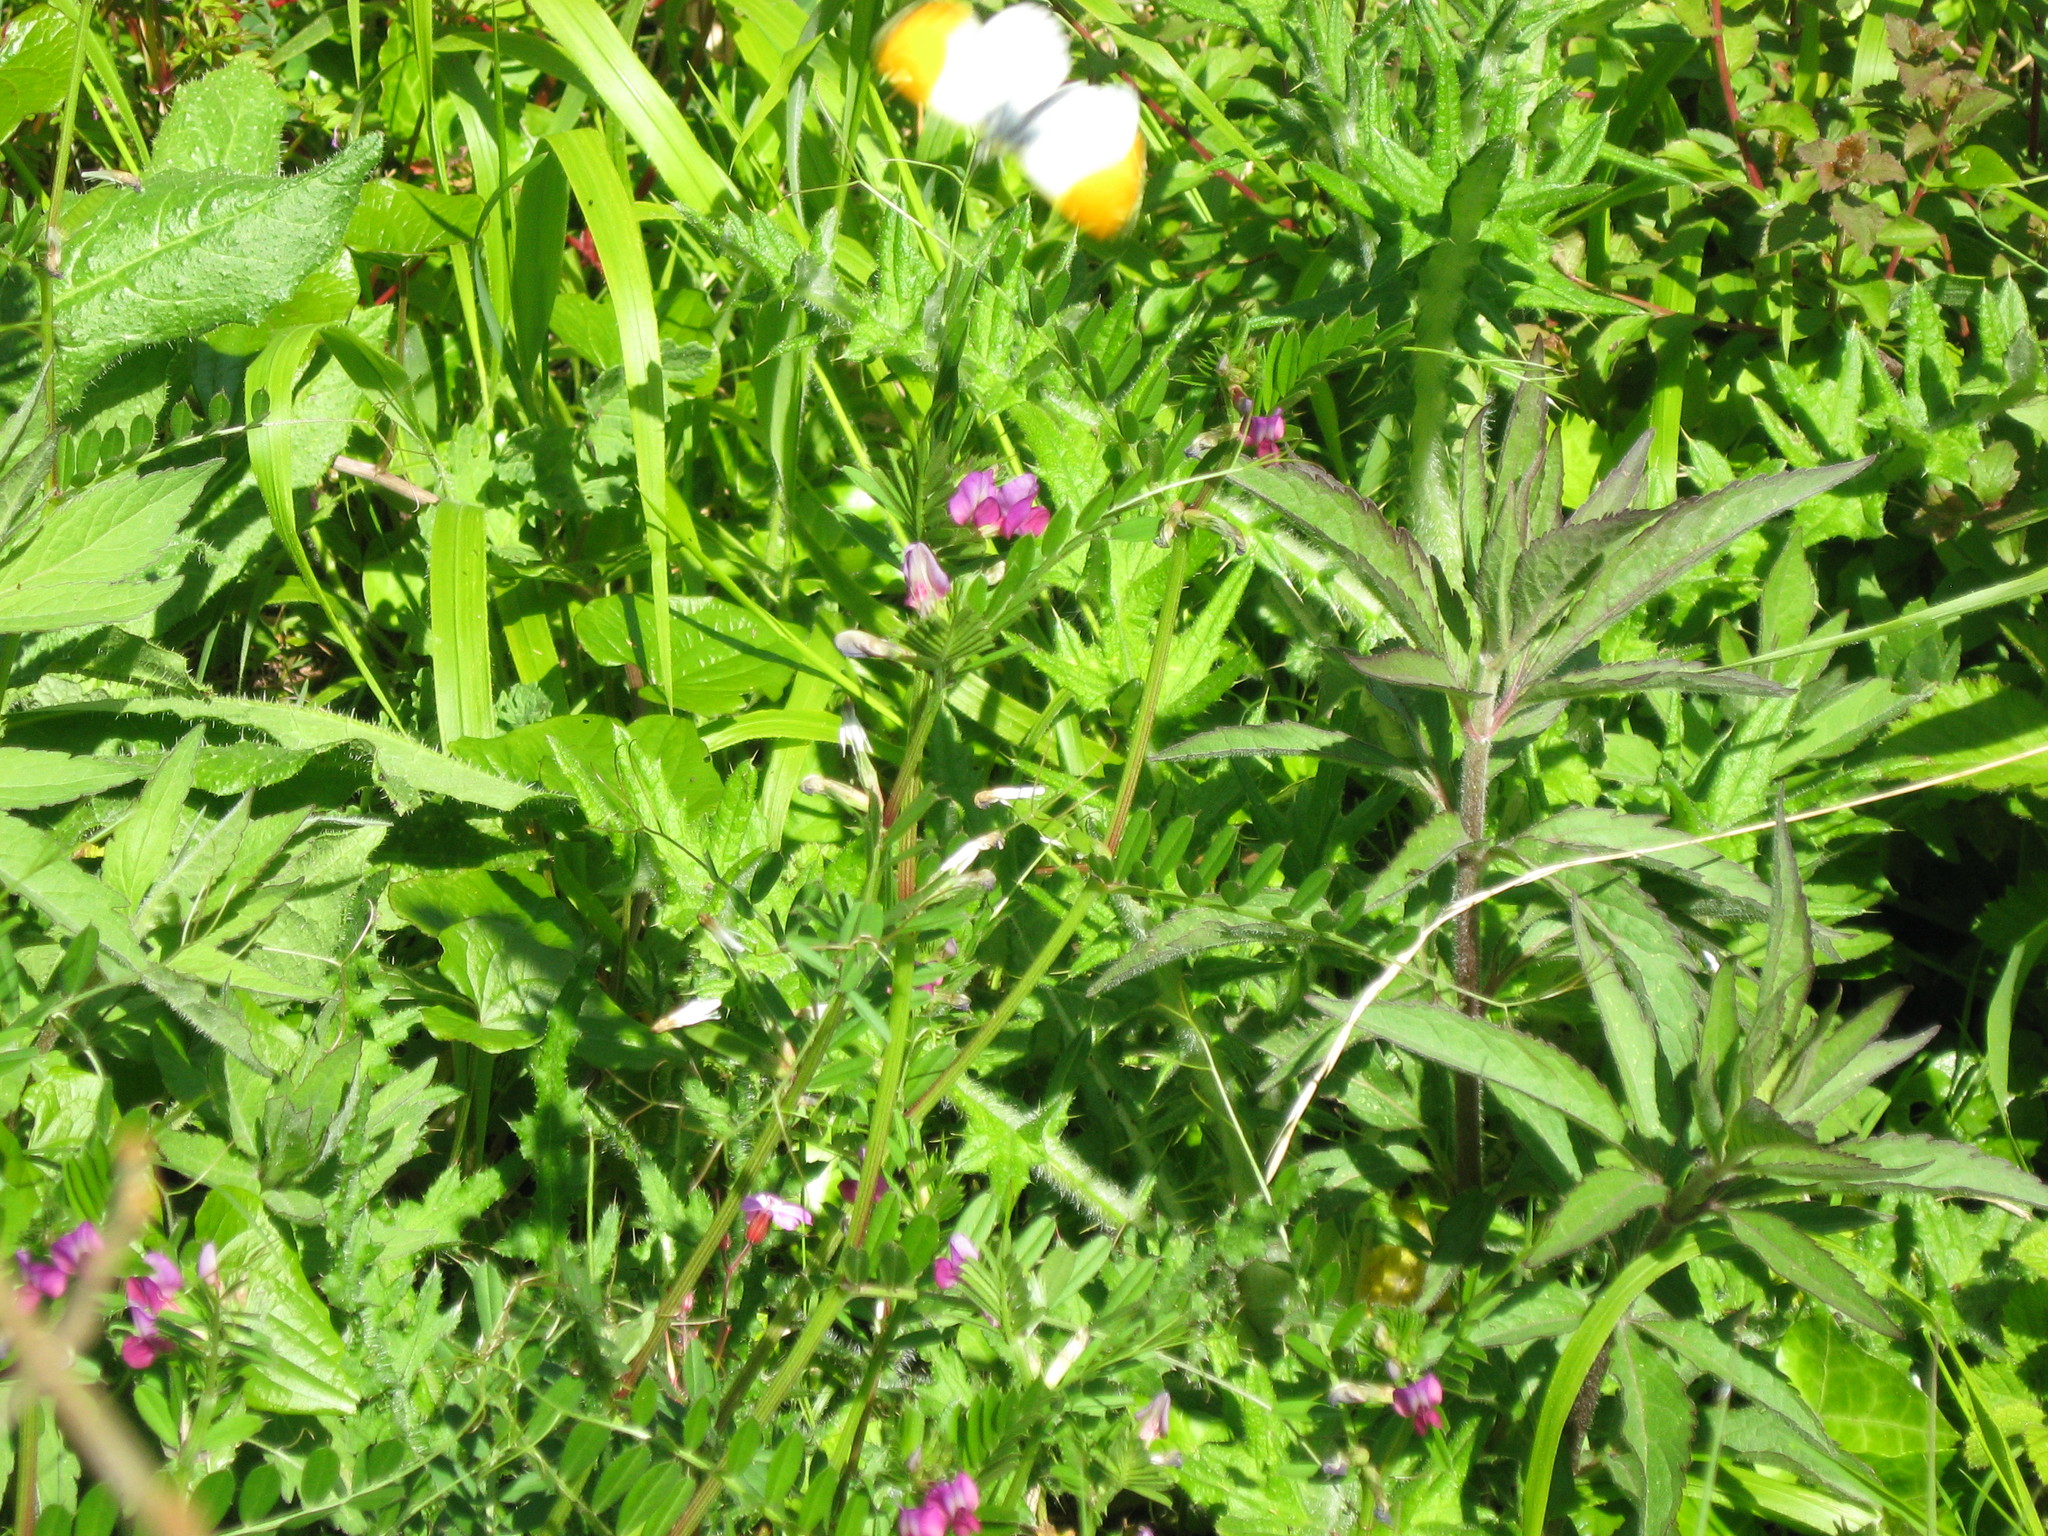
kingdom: Animalia
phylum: Arthropoda
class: Insecta
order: Lepidoptera
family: Pieridae
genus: Anthocharis
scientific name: Anthocharis cardamines
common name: Orange-tip
